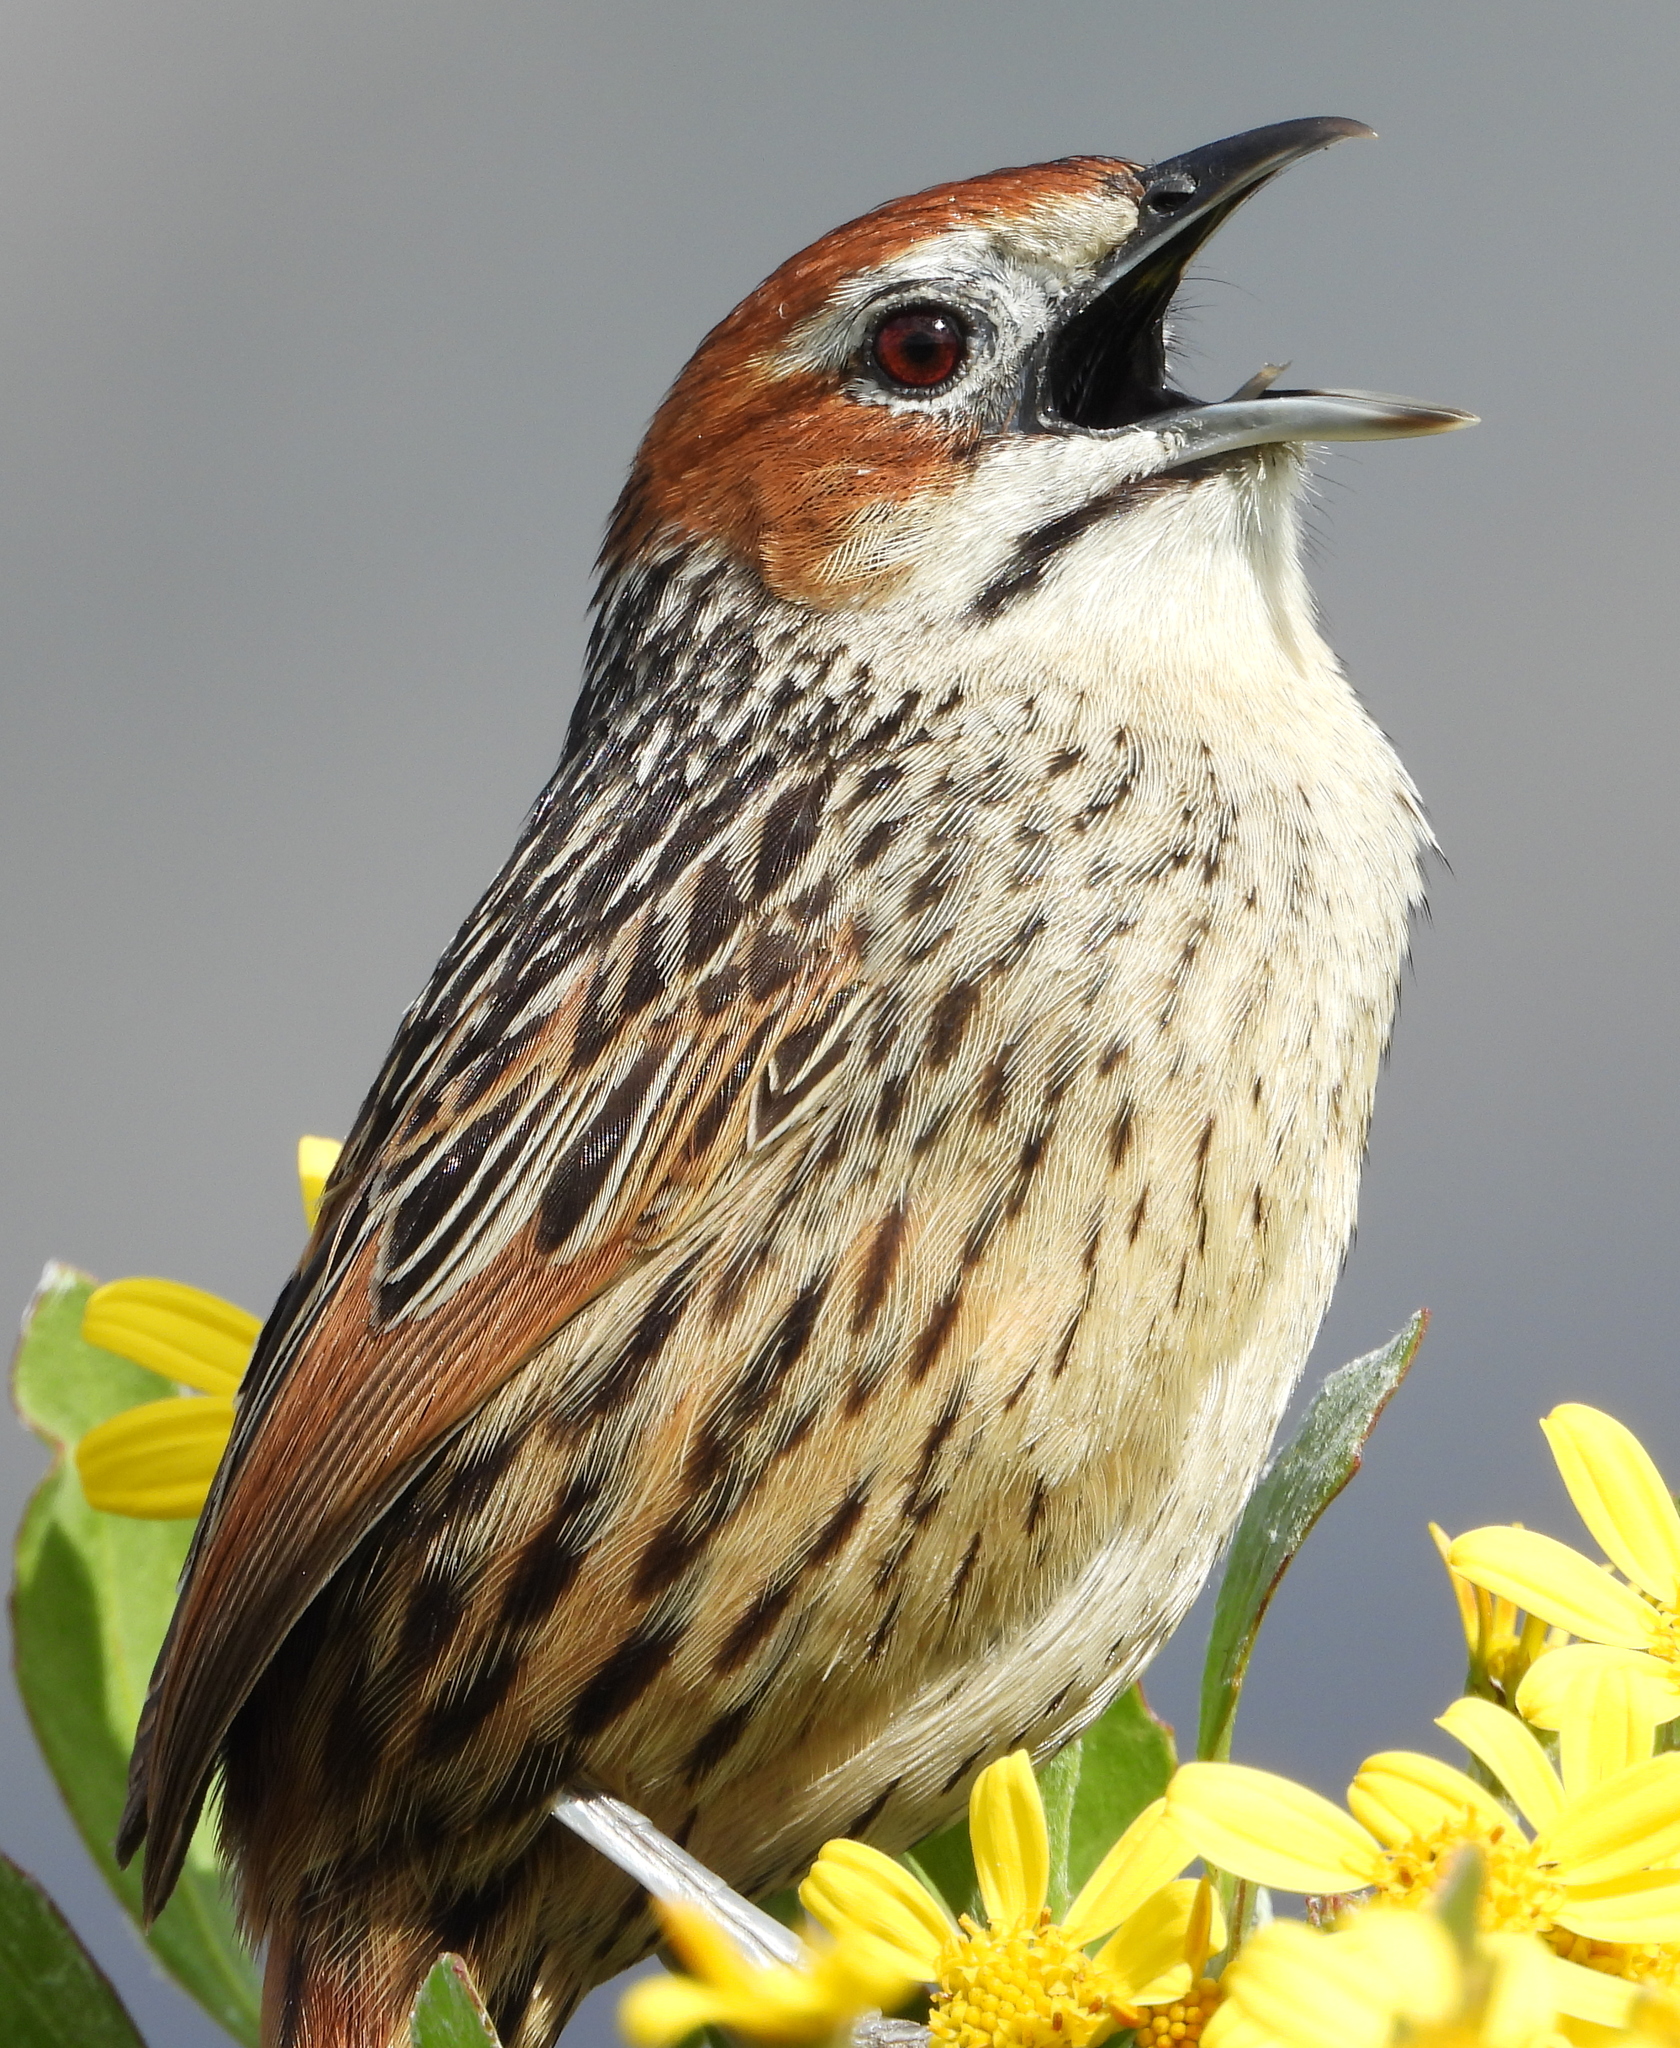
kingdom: Animalia
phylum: Chordata
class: Aves
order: Passeriformes
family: Macrosphenidae
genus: Sphenoeacus
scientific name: Sphenoeacus afer
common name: Cape grassbird
